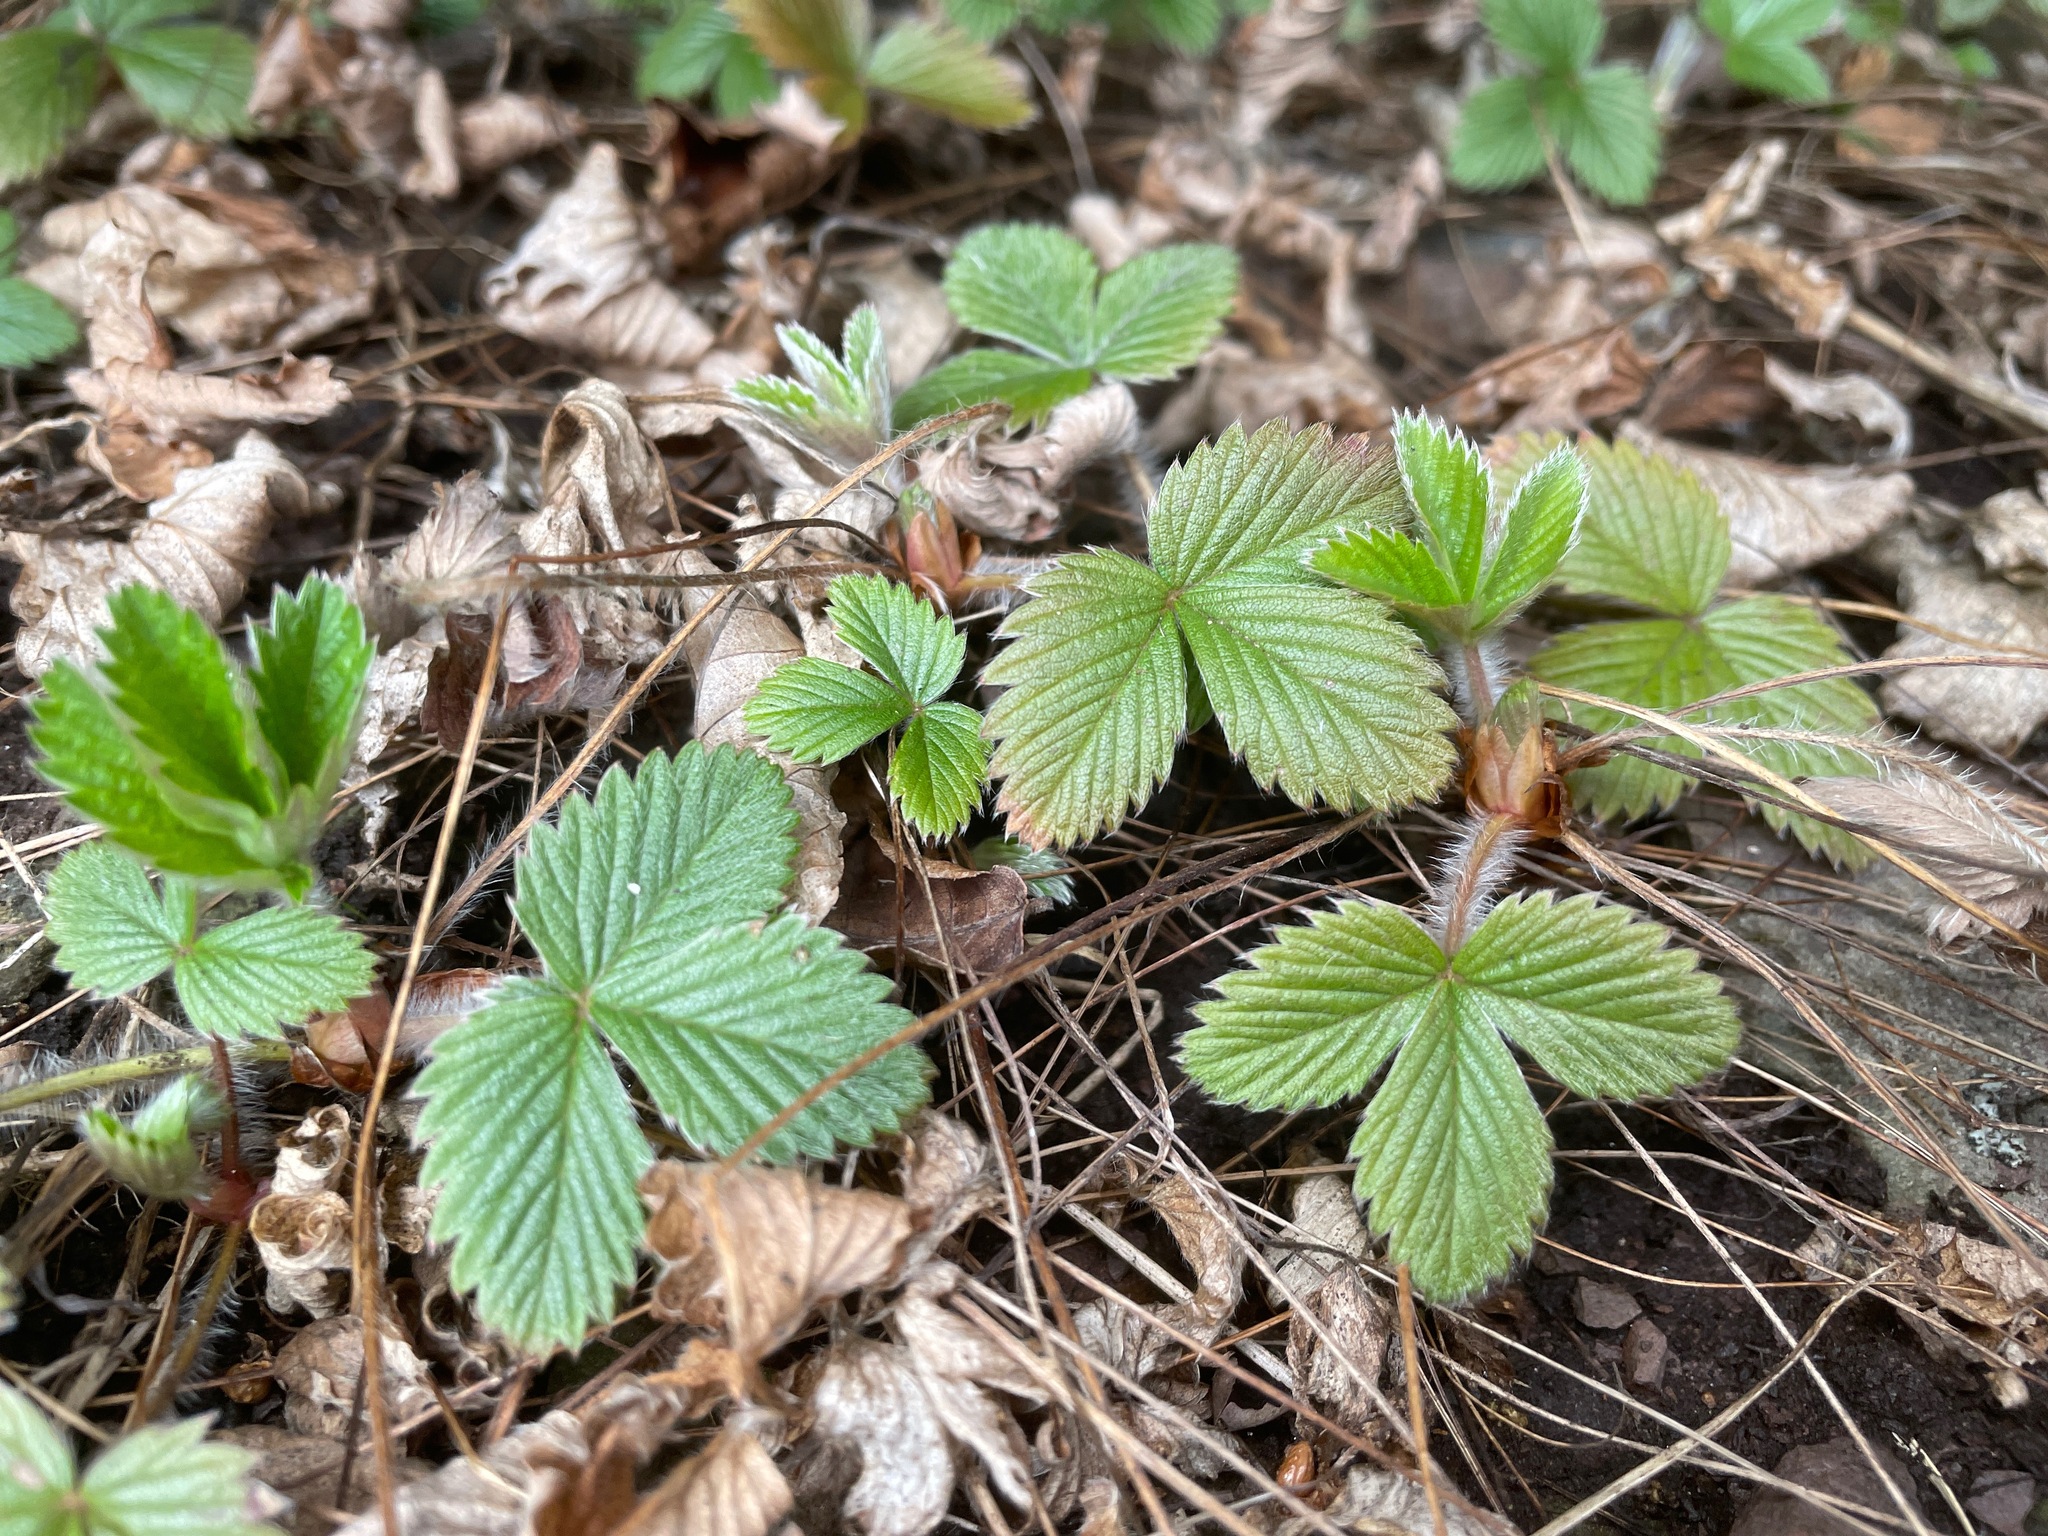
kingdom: Plantae
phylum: Tracheophyta
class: Magnoliopsida
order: Rosales
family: Rosaceae
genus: Fragaria
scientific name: Fragaria virginiana
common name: Thickleaved wild strawberry
